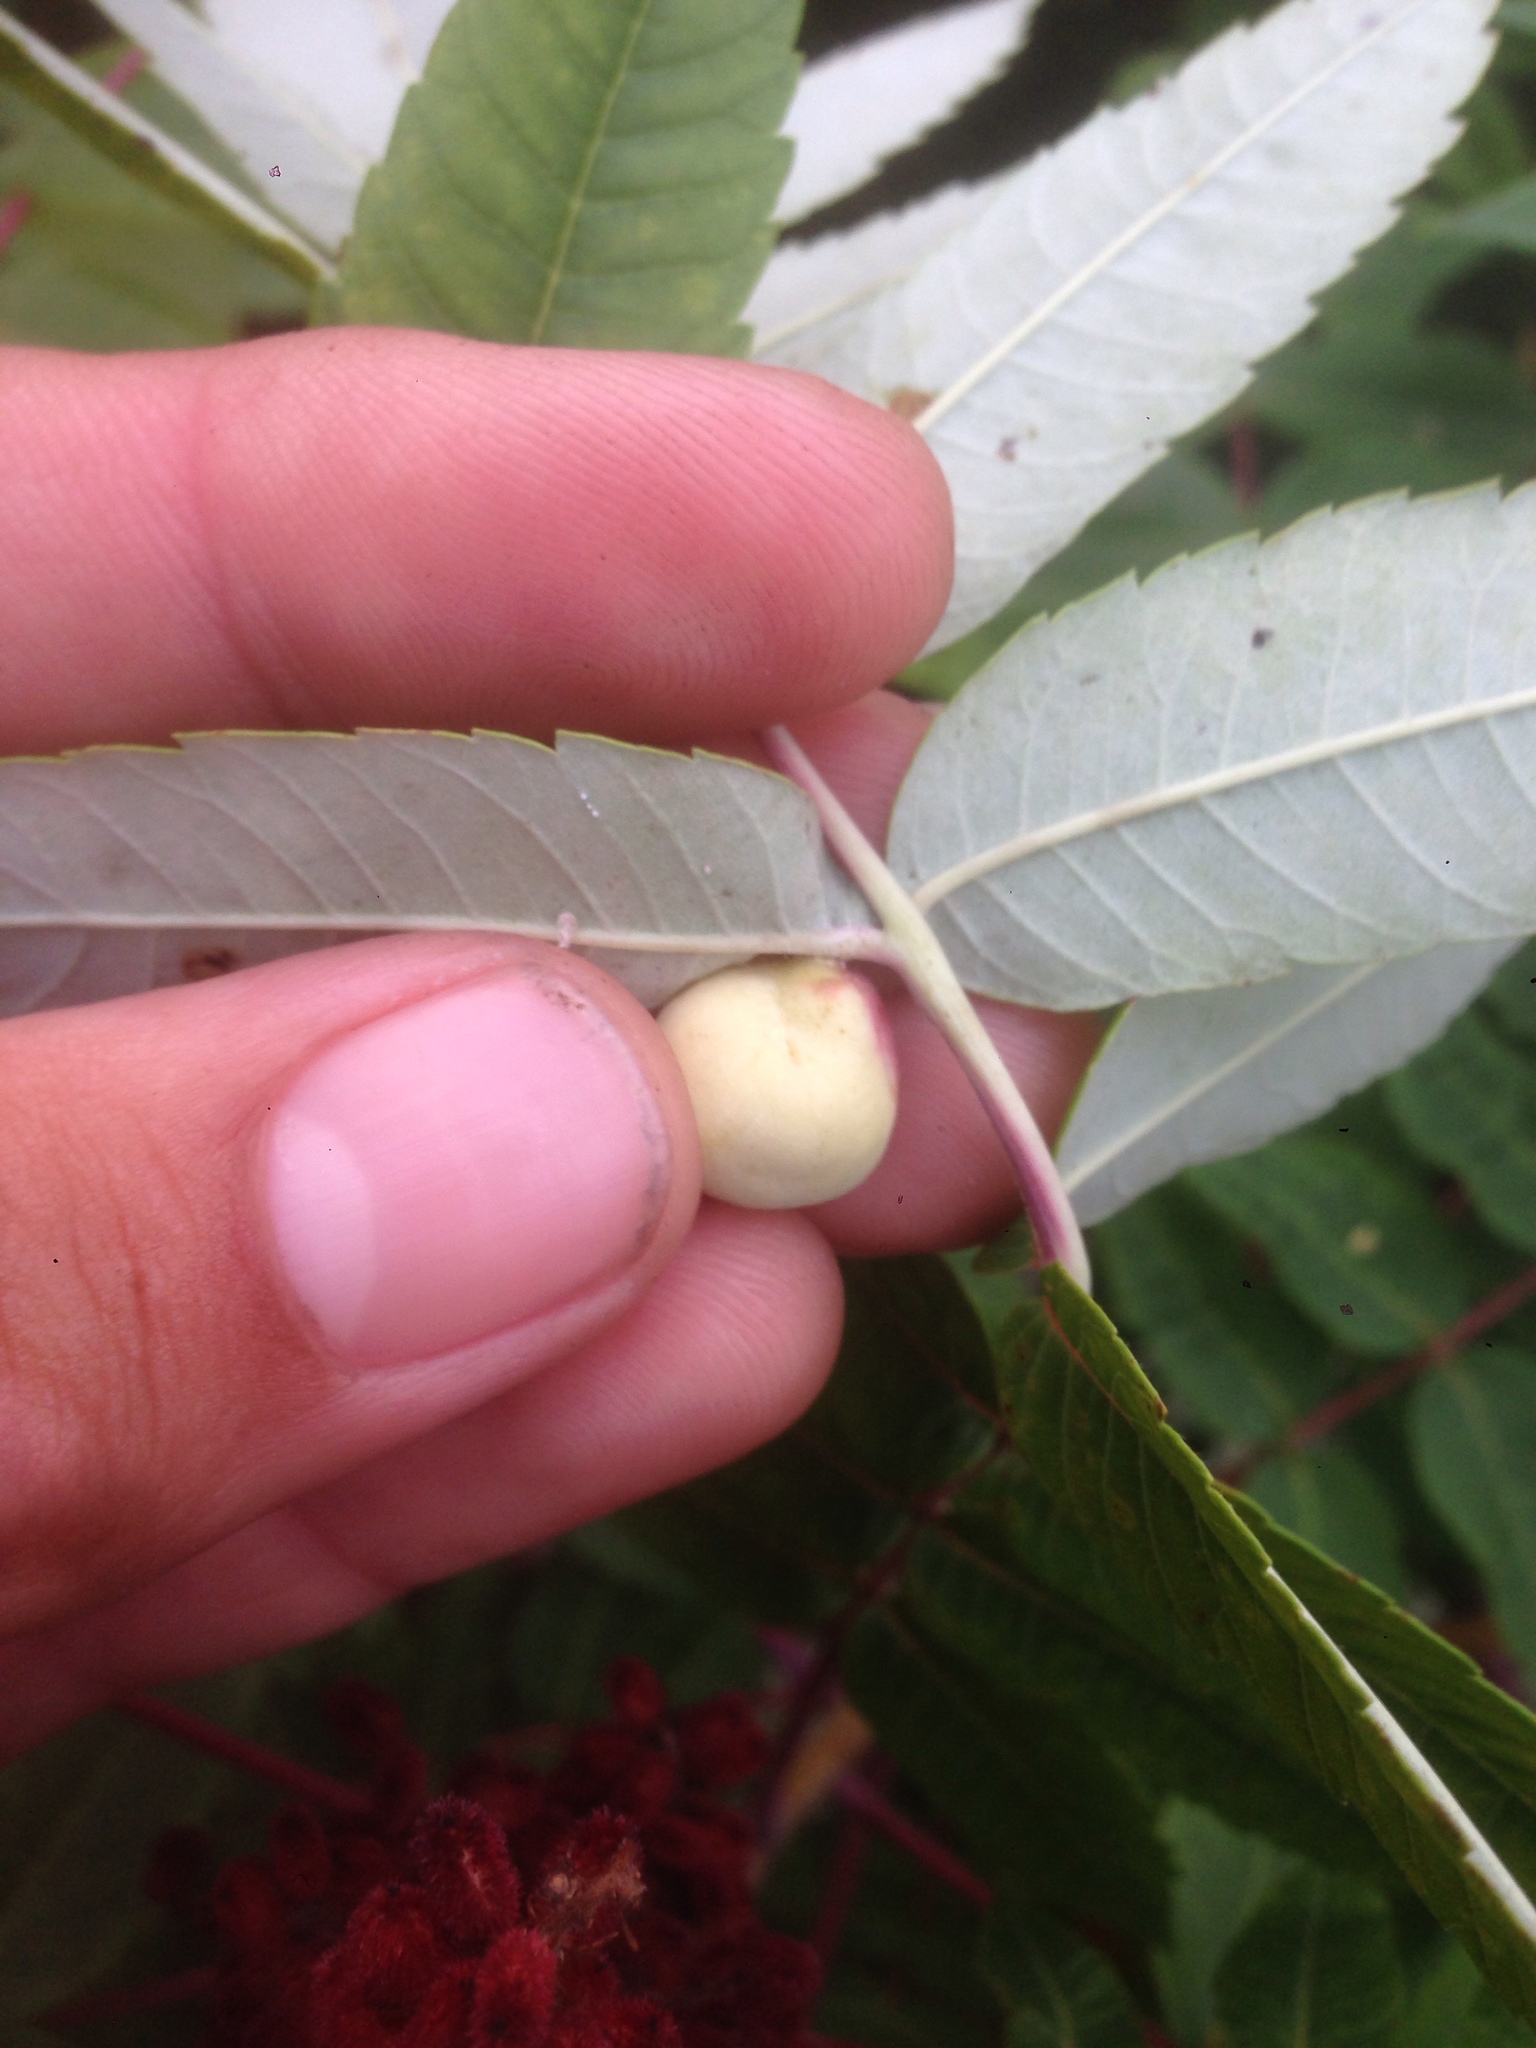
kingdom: Animalia
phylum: Arthropoda
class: Insecta
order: Hemiptera
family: Aphididae
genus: Melaphis
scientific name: Melaphis rhois
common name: Sumac gall aphid
